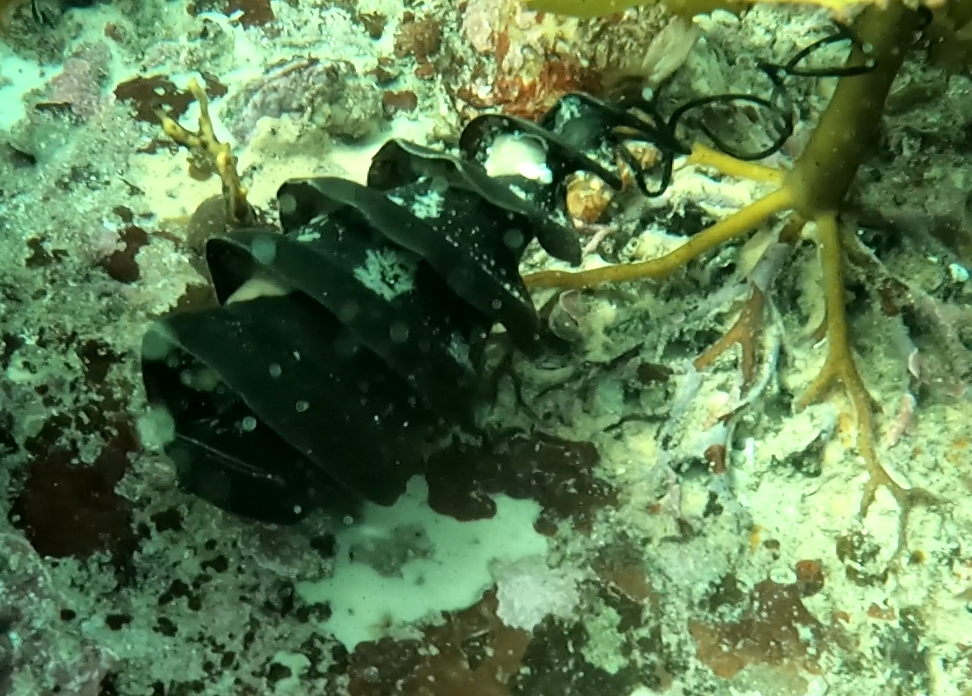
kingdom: Animalia
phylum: Chordata
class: Elasmobranchii
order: Heterodontiformes
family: Heterodontidae
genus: Heterodontus
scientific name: Heterodontus galeatus
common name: Crested bullhead shark
